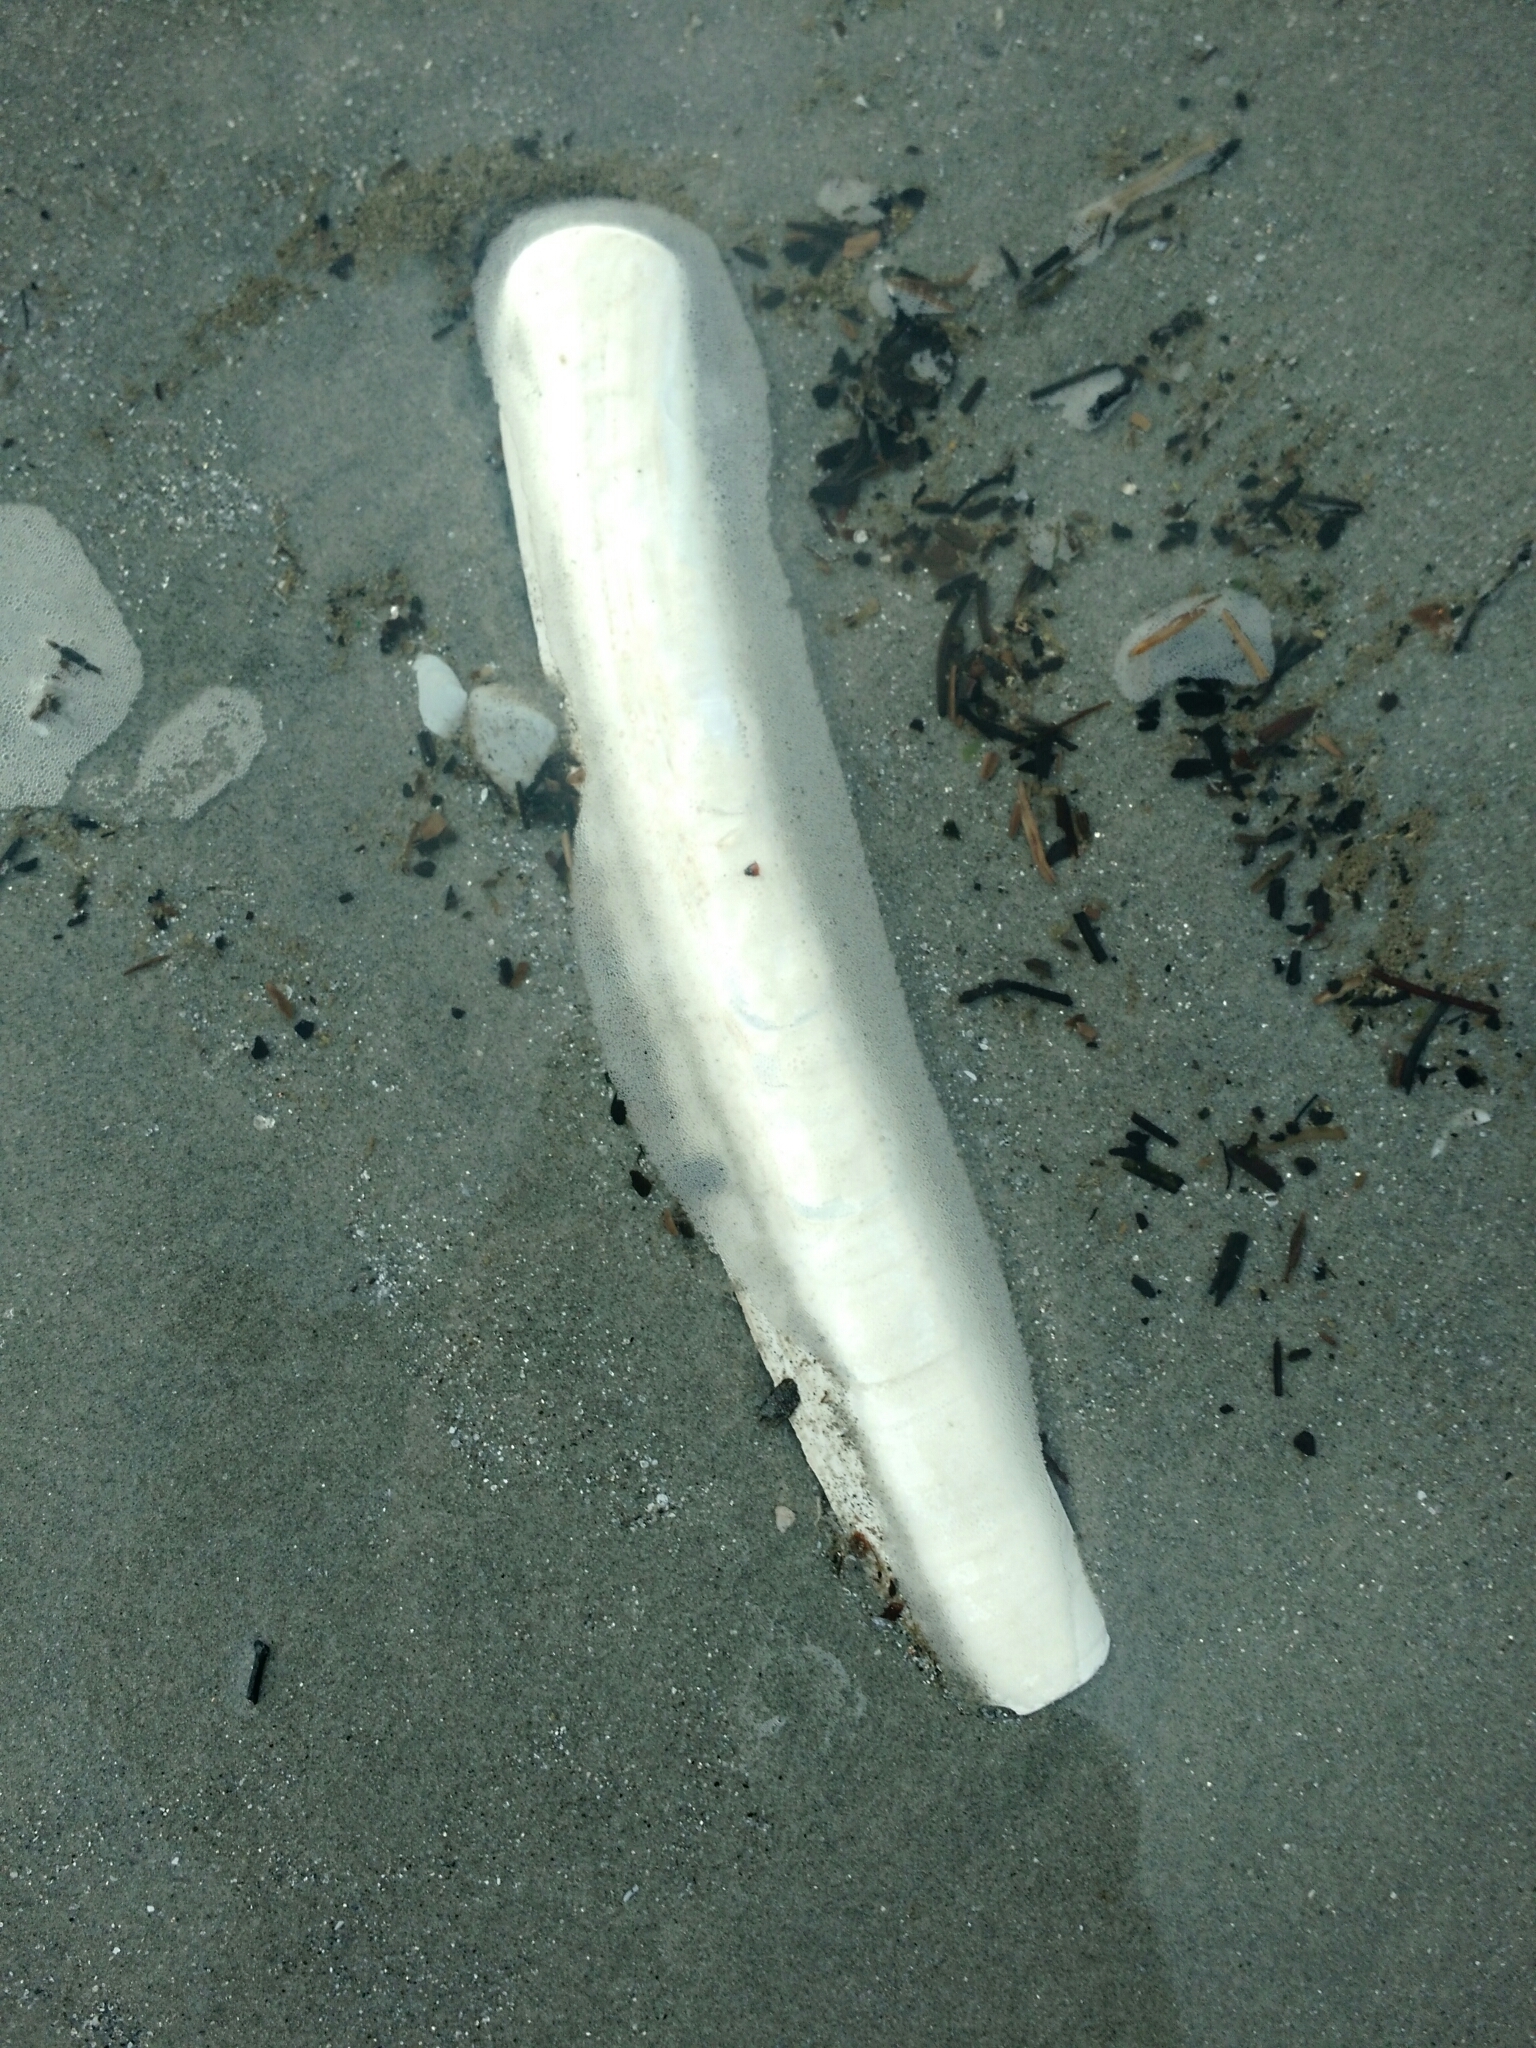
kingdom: Animalia
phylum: Mollusca
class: Bivalvia
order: Adapedonta
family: Pharidae
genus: Ensis
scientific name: Ensis leei
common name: American jack knife clam
